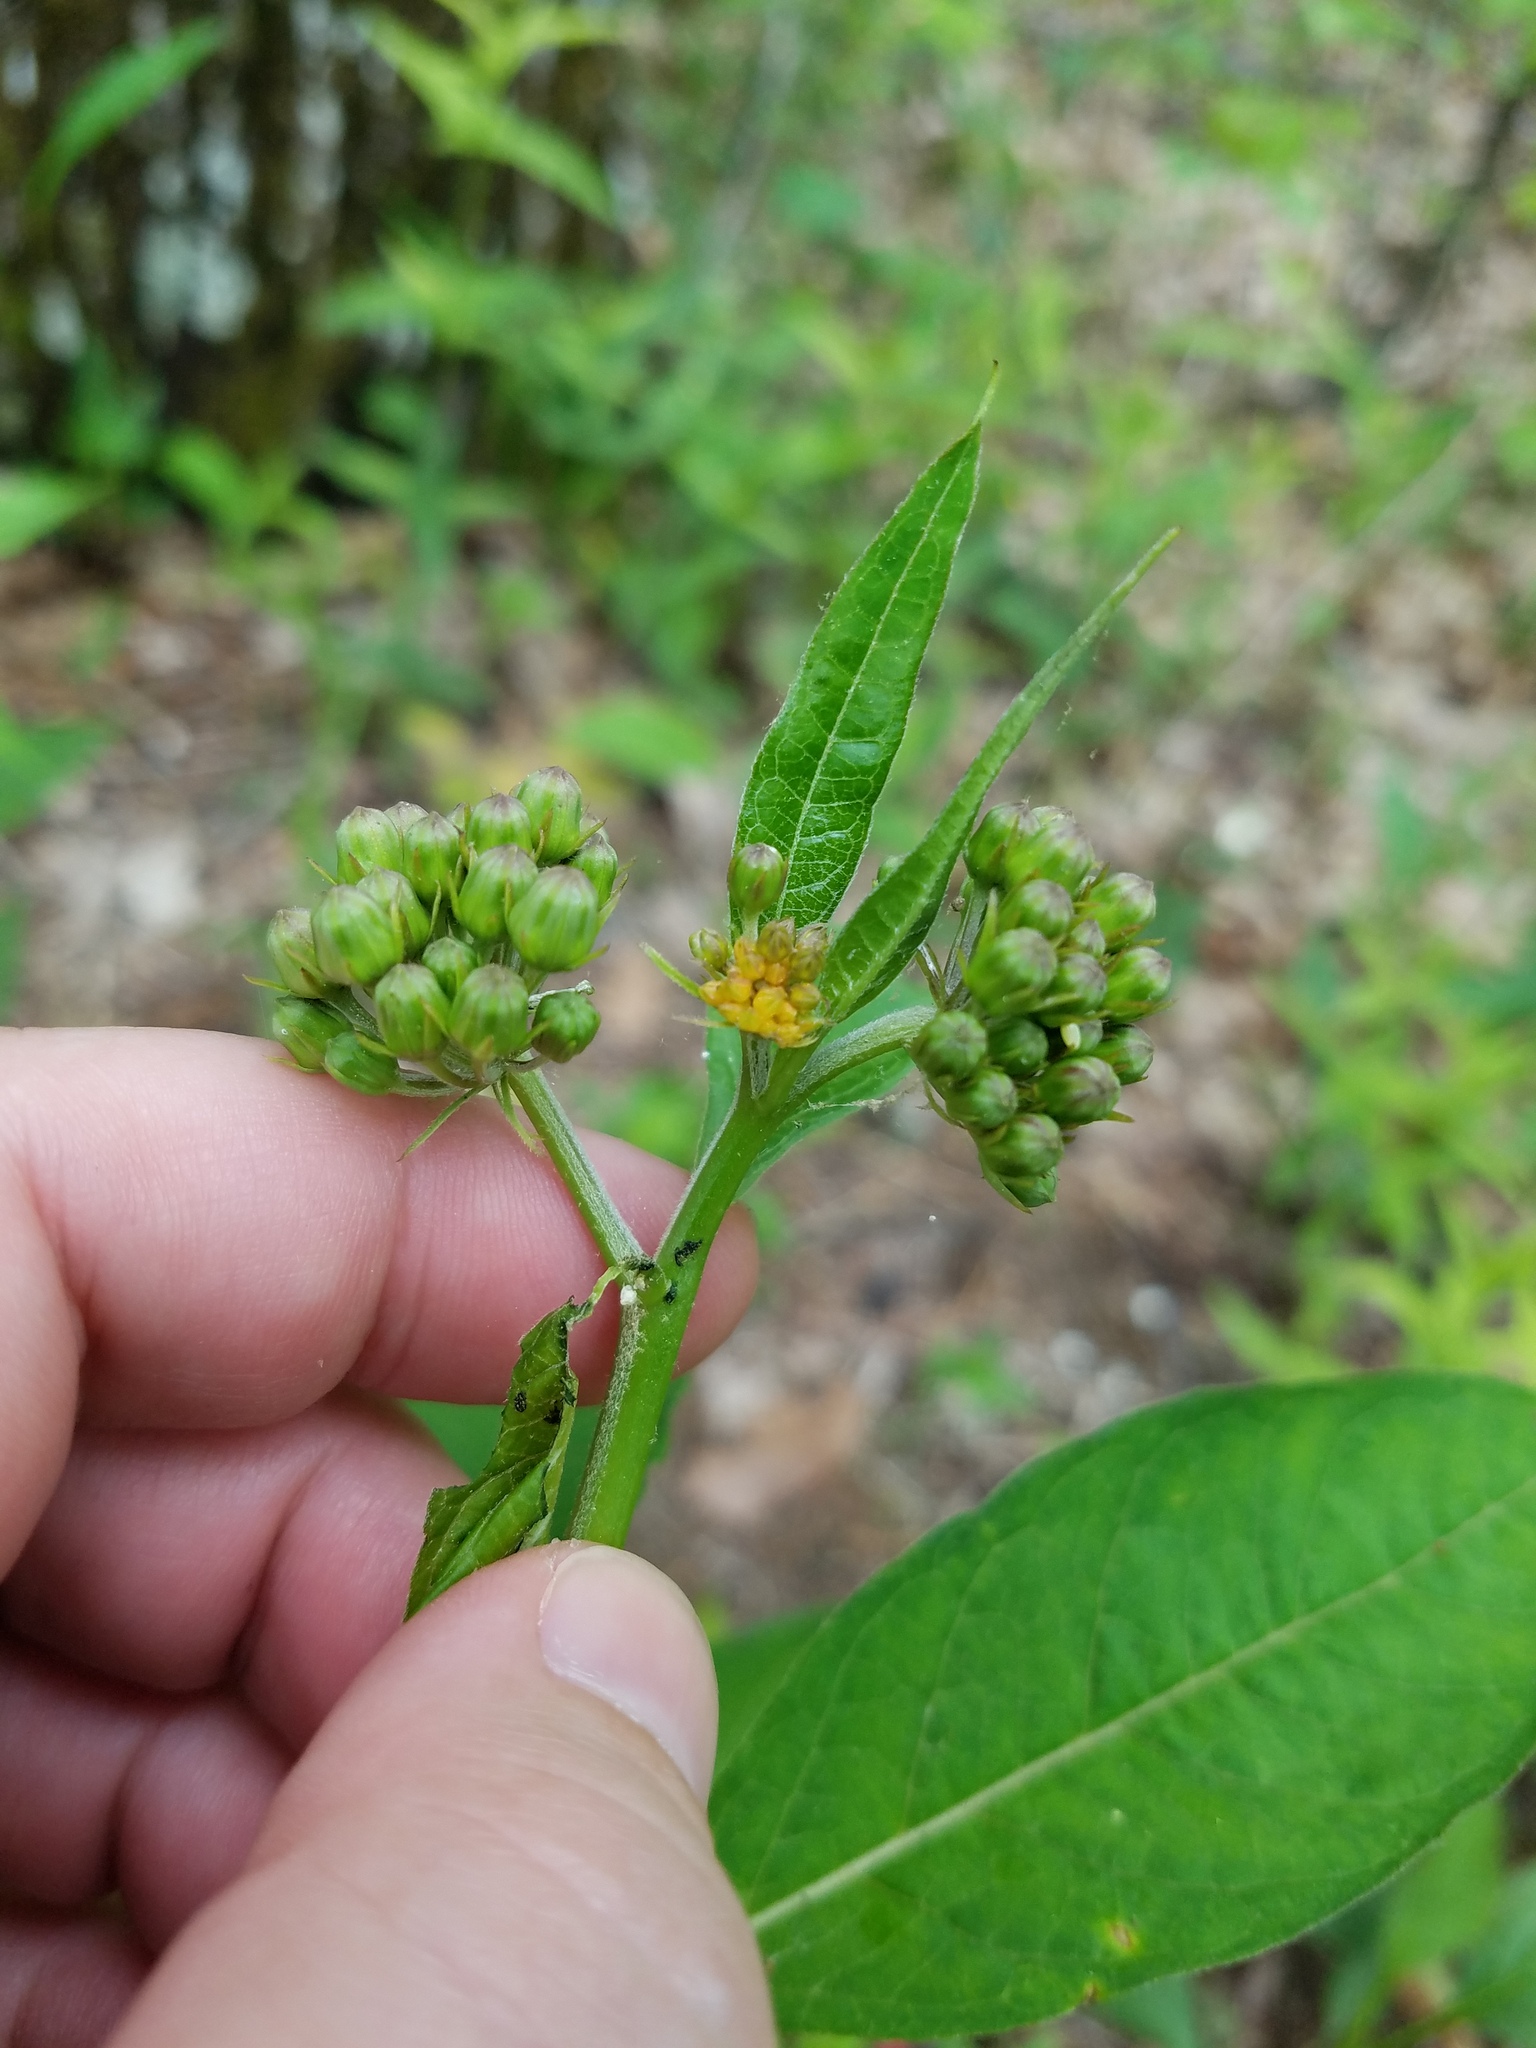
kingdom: Plantae
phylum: Tracheophyta
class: Magnoliopsida
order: Gentianales
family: Apocynaceae
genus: Asclepias
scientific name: Asclepias exaltata
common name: Poke milkweed
